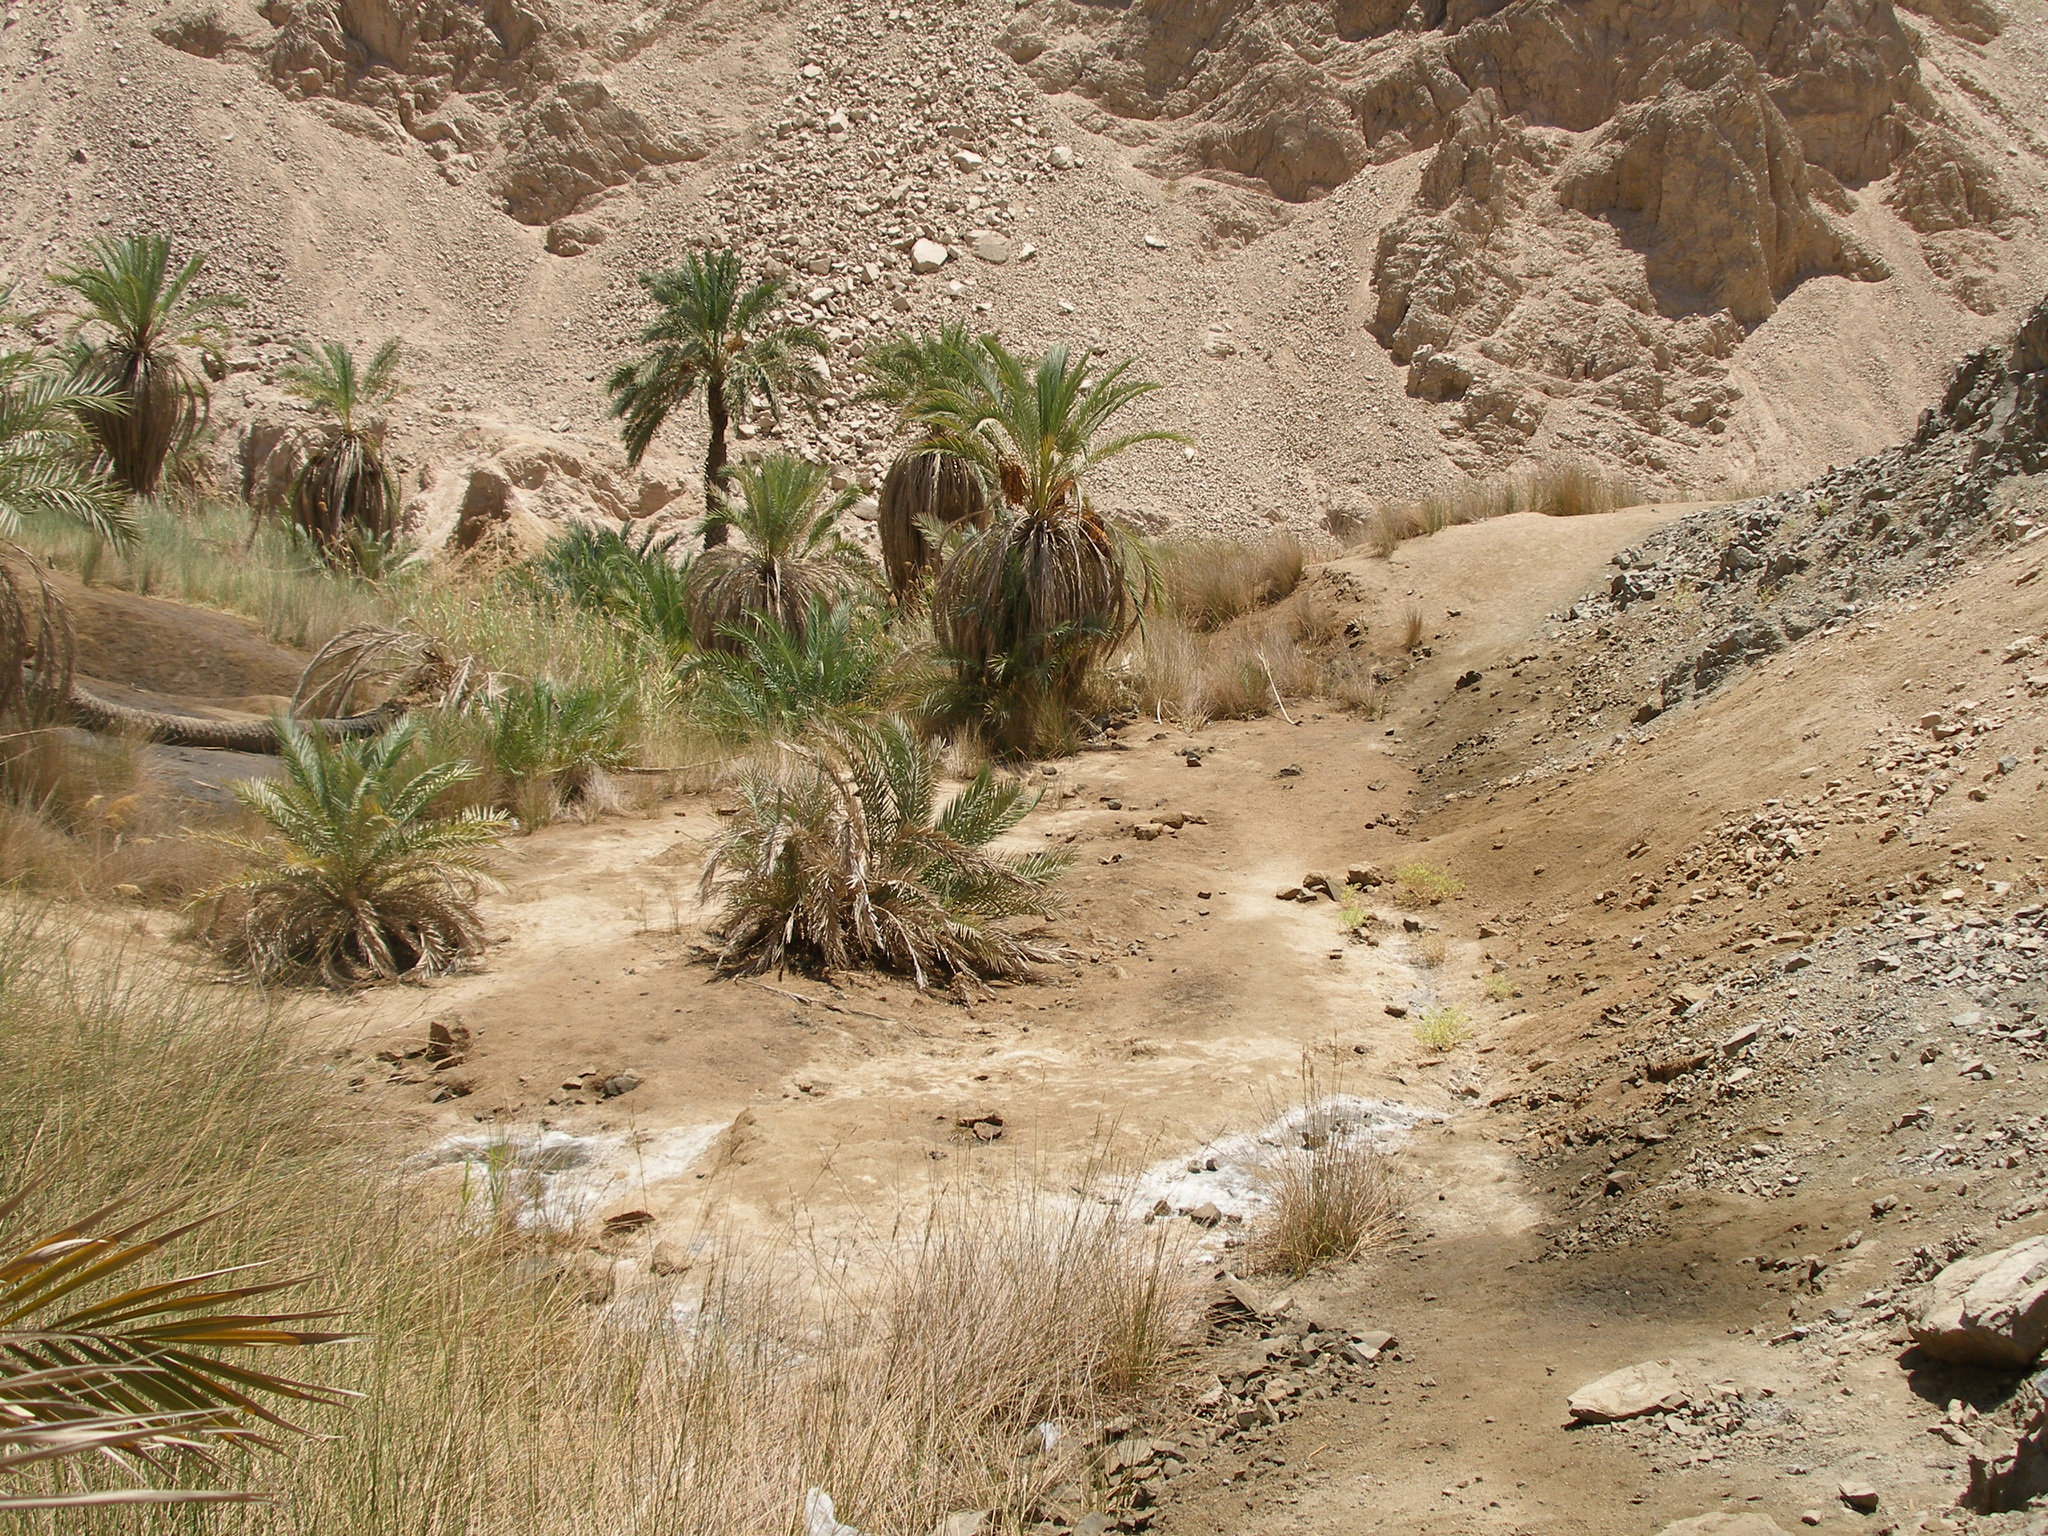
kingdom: Plantae
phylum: Tracheophyta
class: Liliopsida
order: Arecales
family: Arecaceae
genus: Phoenix
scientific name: Phoenix dactylifera
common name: Date palm
